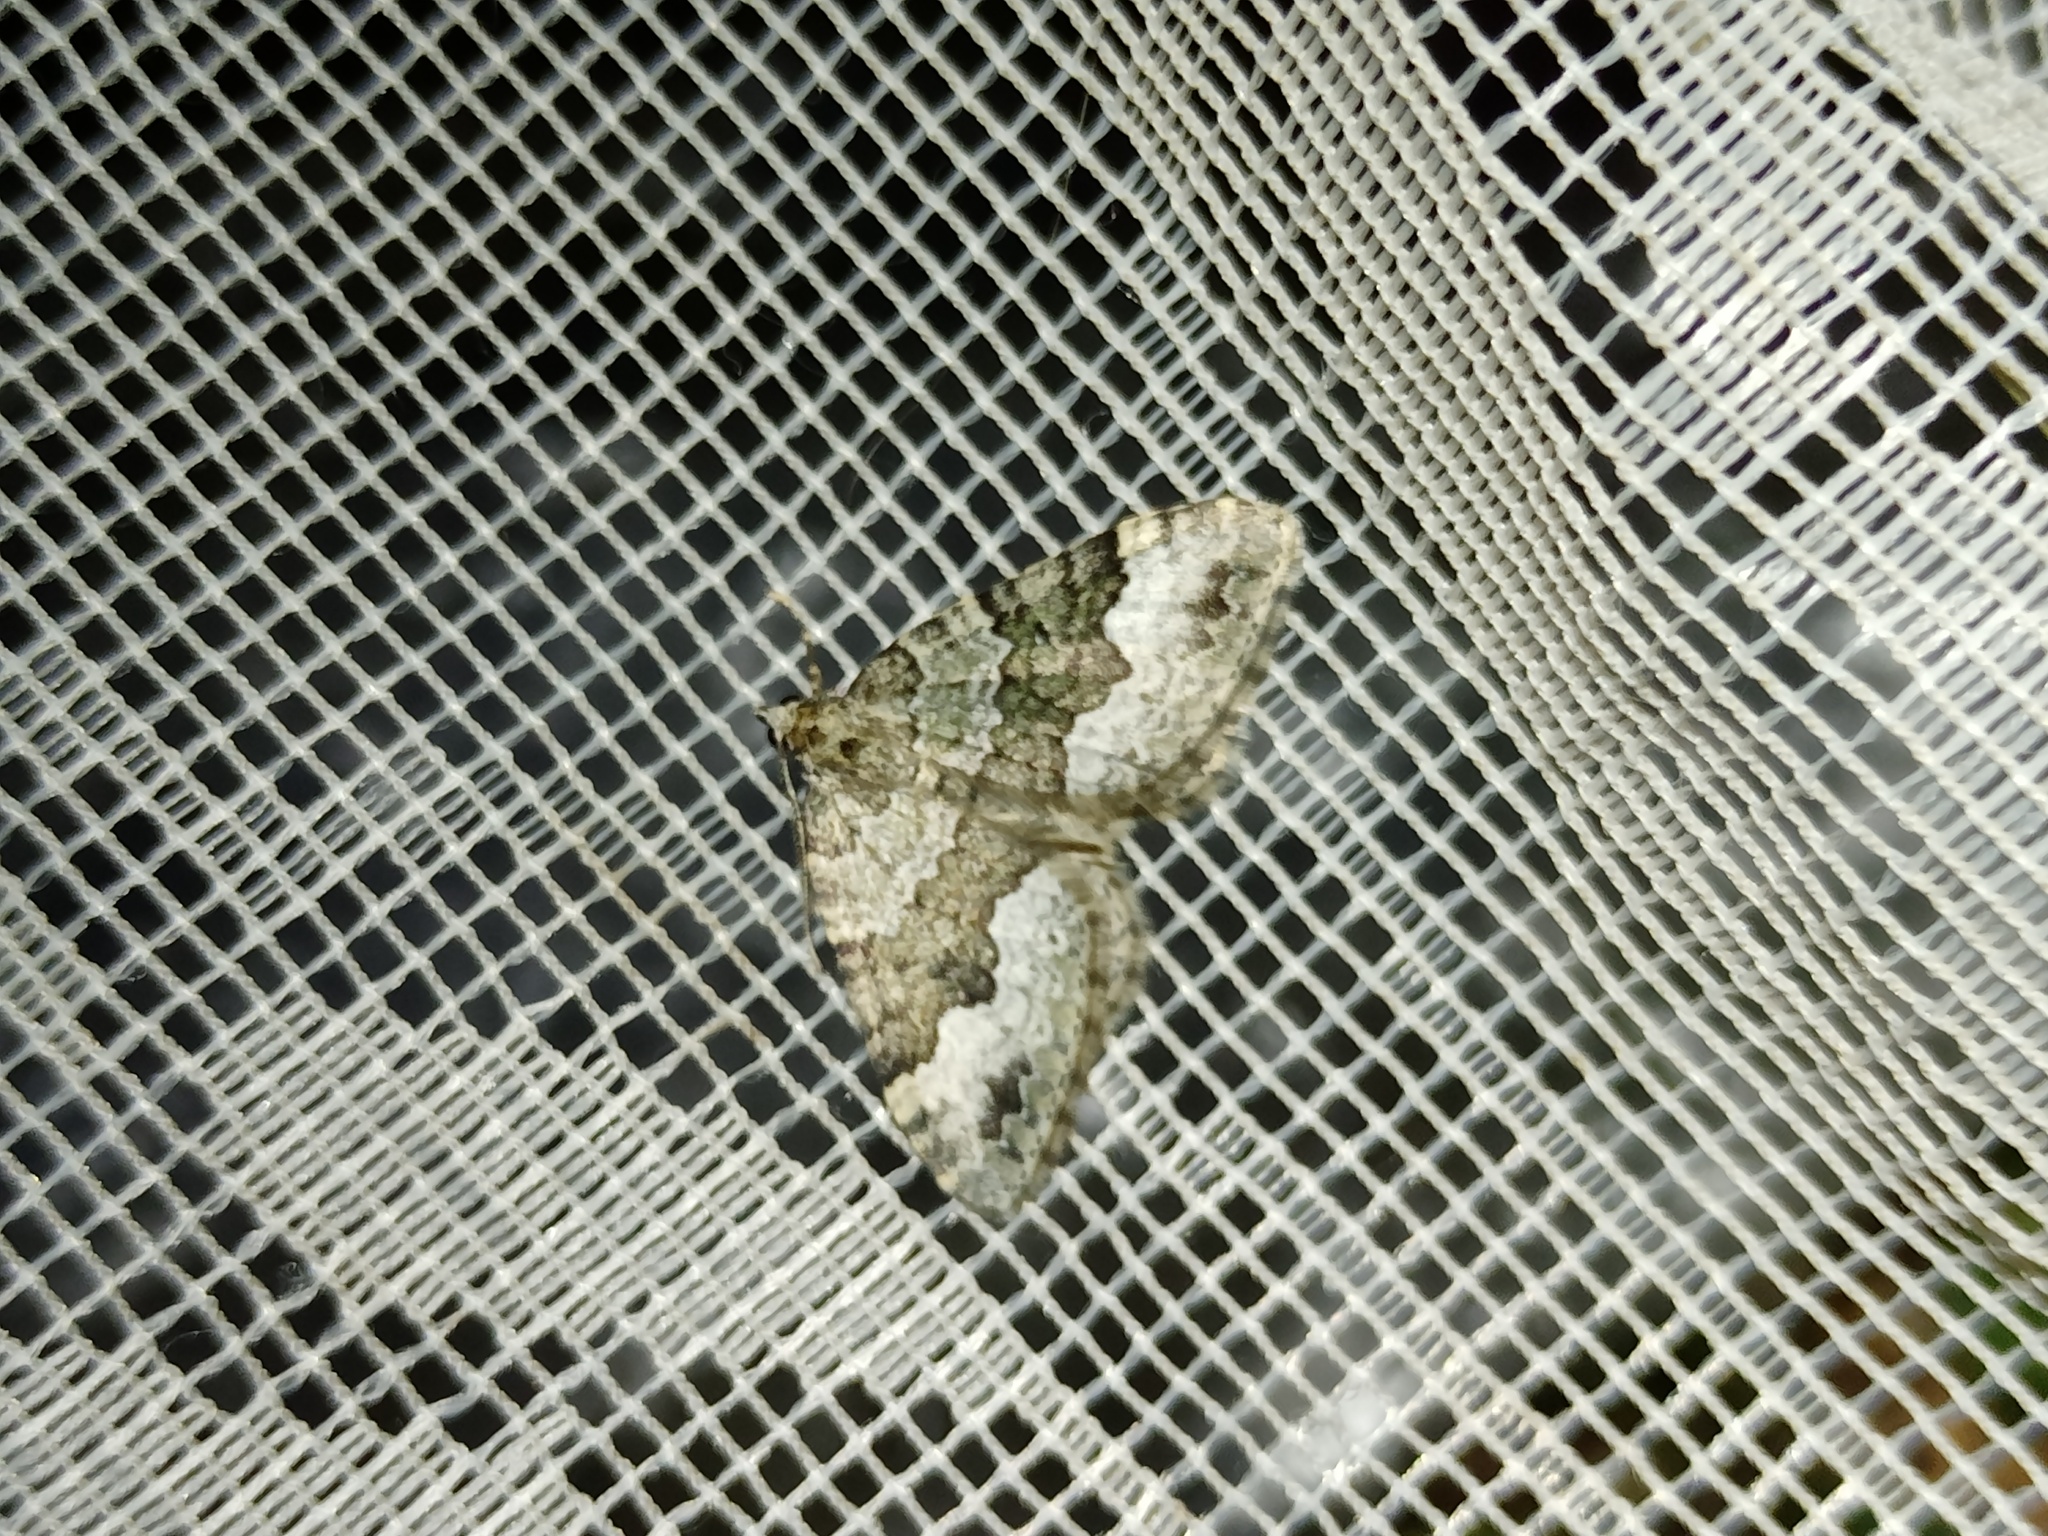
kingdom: Animalia
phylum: Arthropoda
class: Insecta
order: Lepidoptera
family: Geometridae
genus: Colostygia
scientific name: Colostygia aptata
